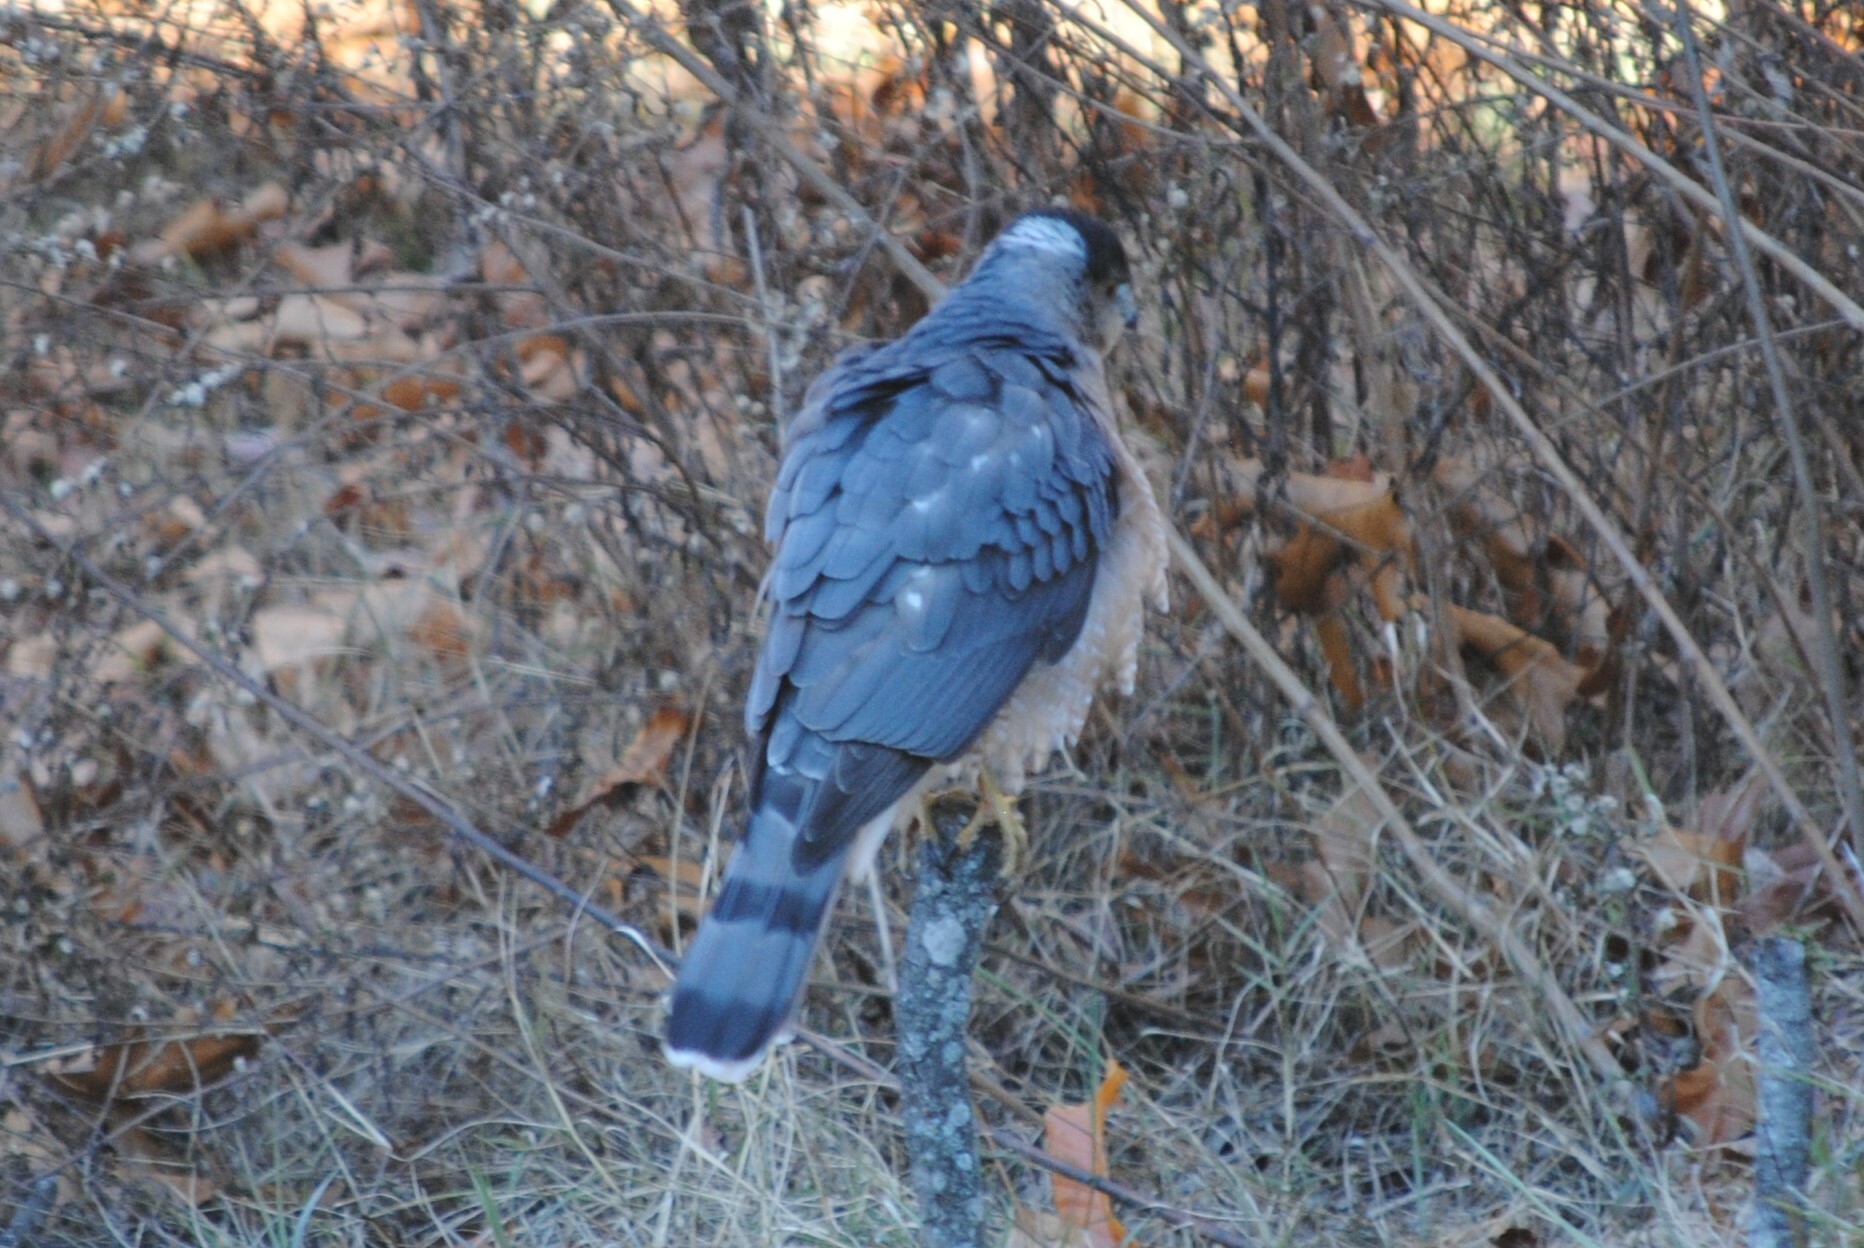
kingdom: Animalia
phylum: Chordata
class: Aves
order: Accipitriformes
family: Accipitridae
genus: Accipiter
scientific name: Accipiter cooperii
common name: Cooper's hawk
